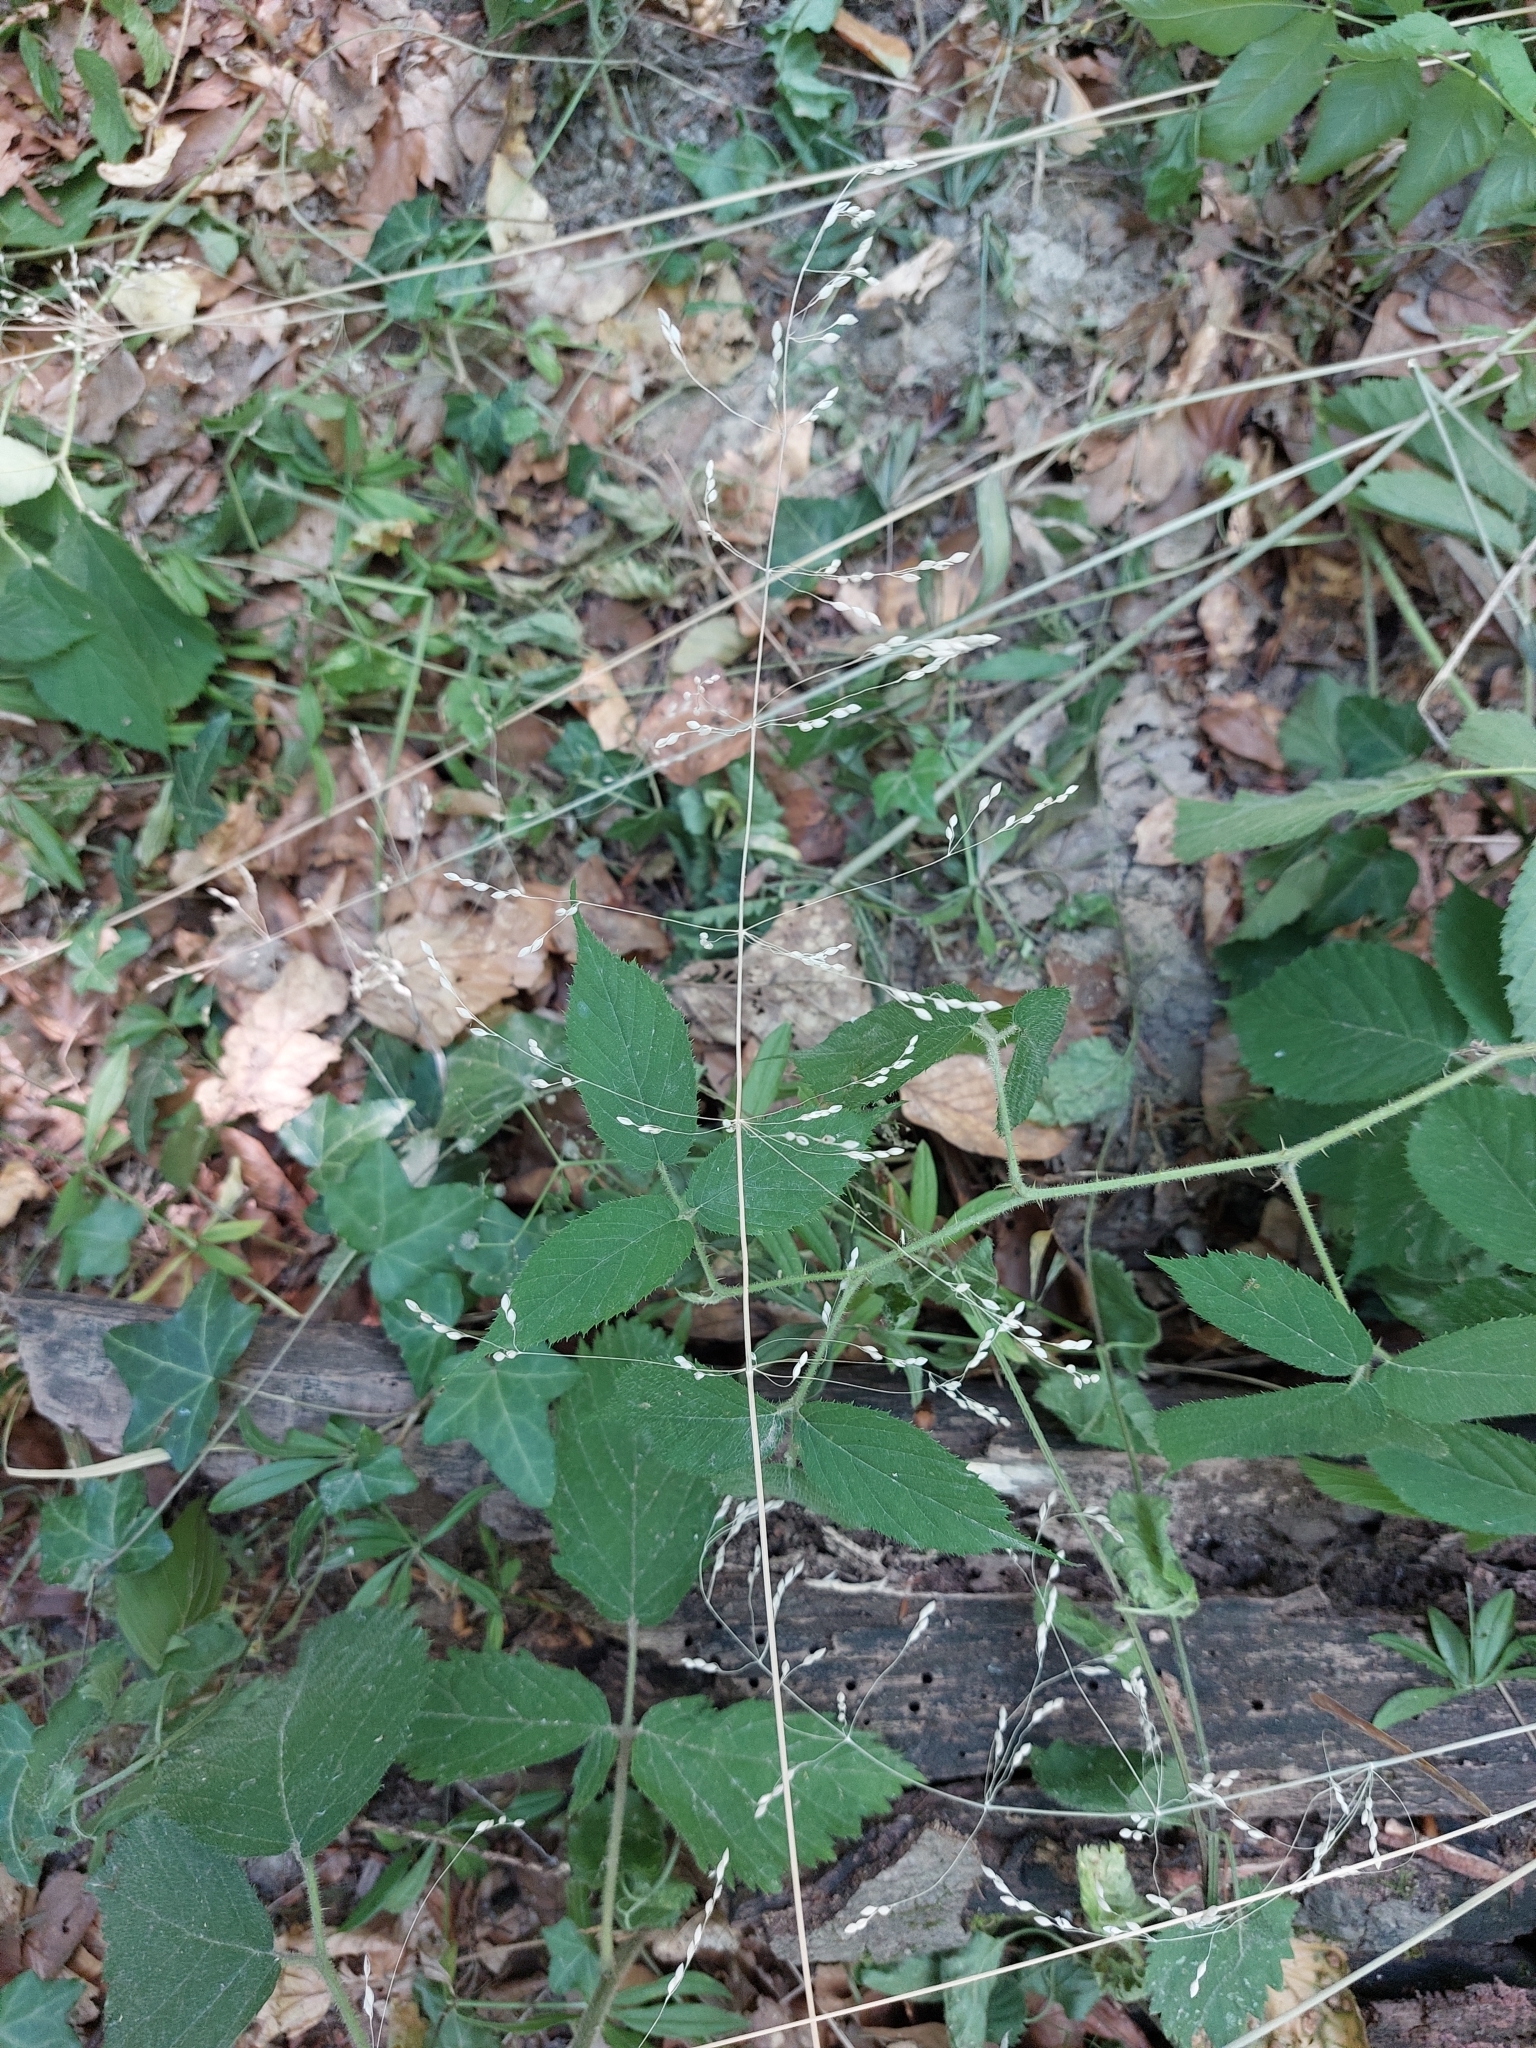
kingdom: Plantae
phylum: Tracheophyta
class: Liliopsida
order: Poales
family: Poaceae
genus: Milium
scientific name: Milium effusum
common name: Wood millet
